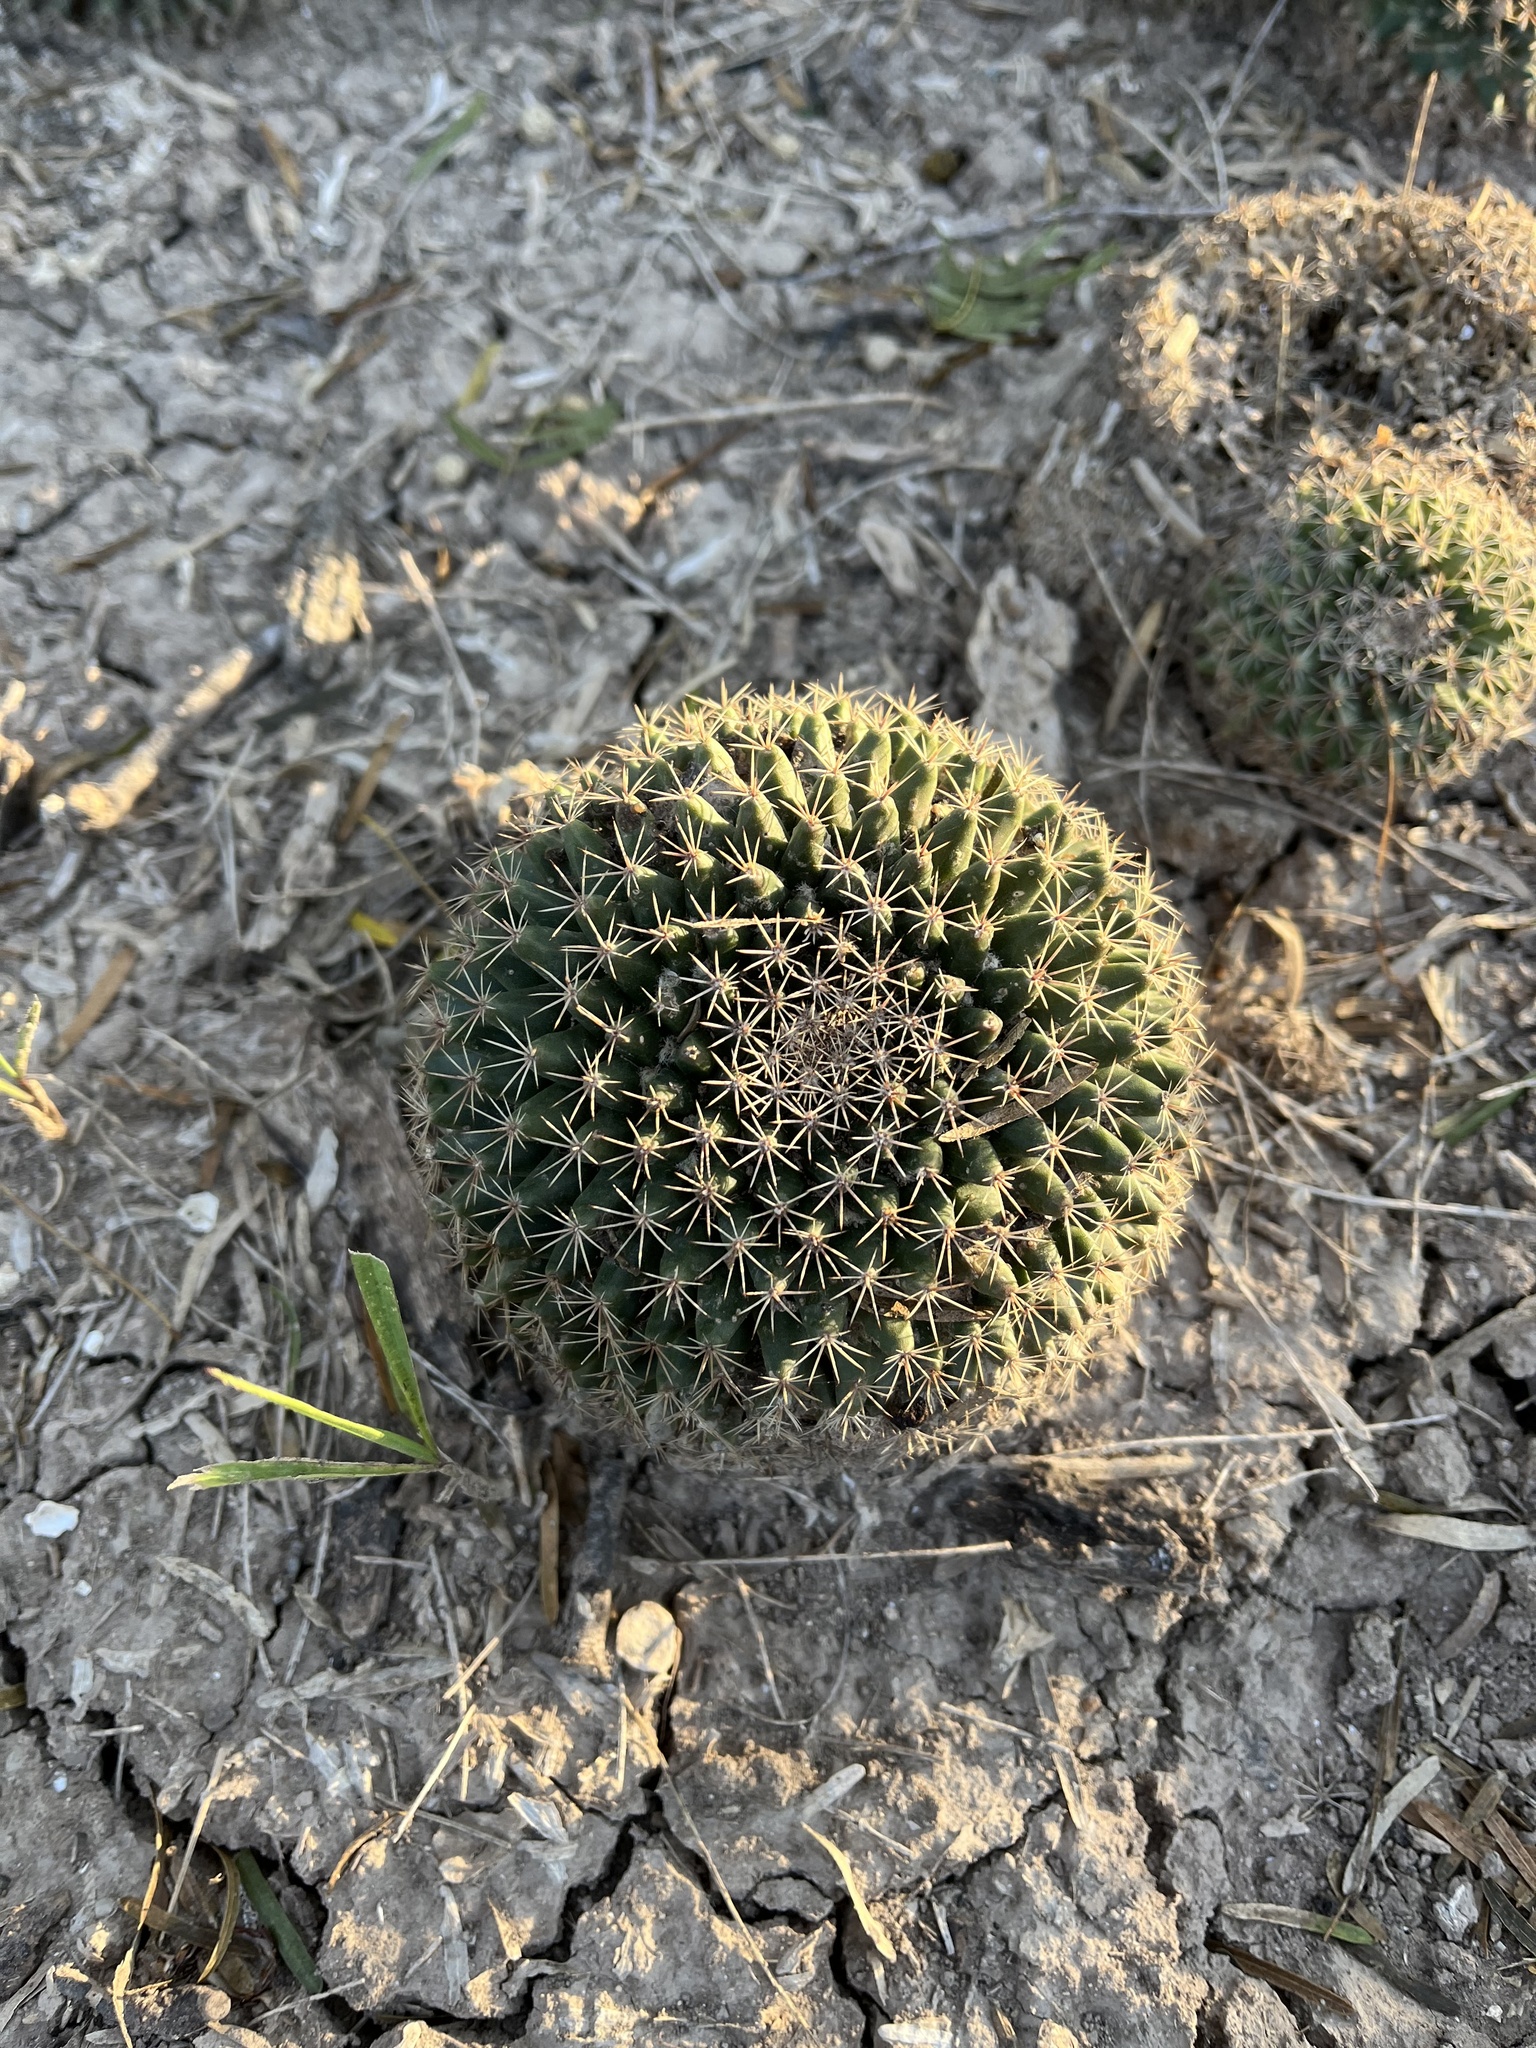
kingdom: Plantae
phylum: Tracheophyta
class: Magnoliopsida
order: Caryophyllales
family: Cactaceae
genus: Mammillaria
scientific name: Mammillaria heyderi
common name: Little nipple cactus
